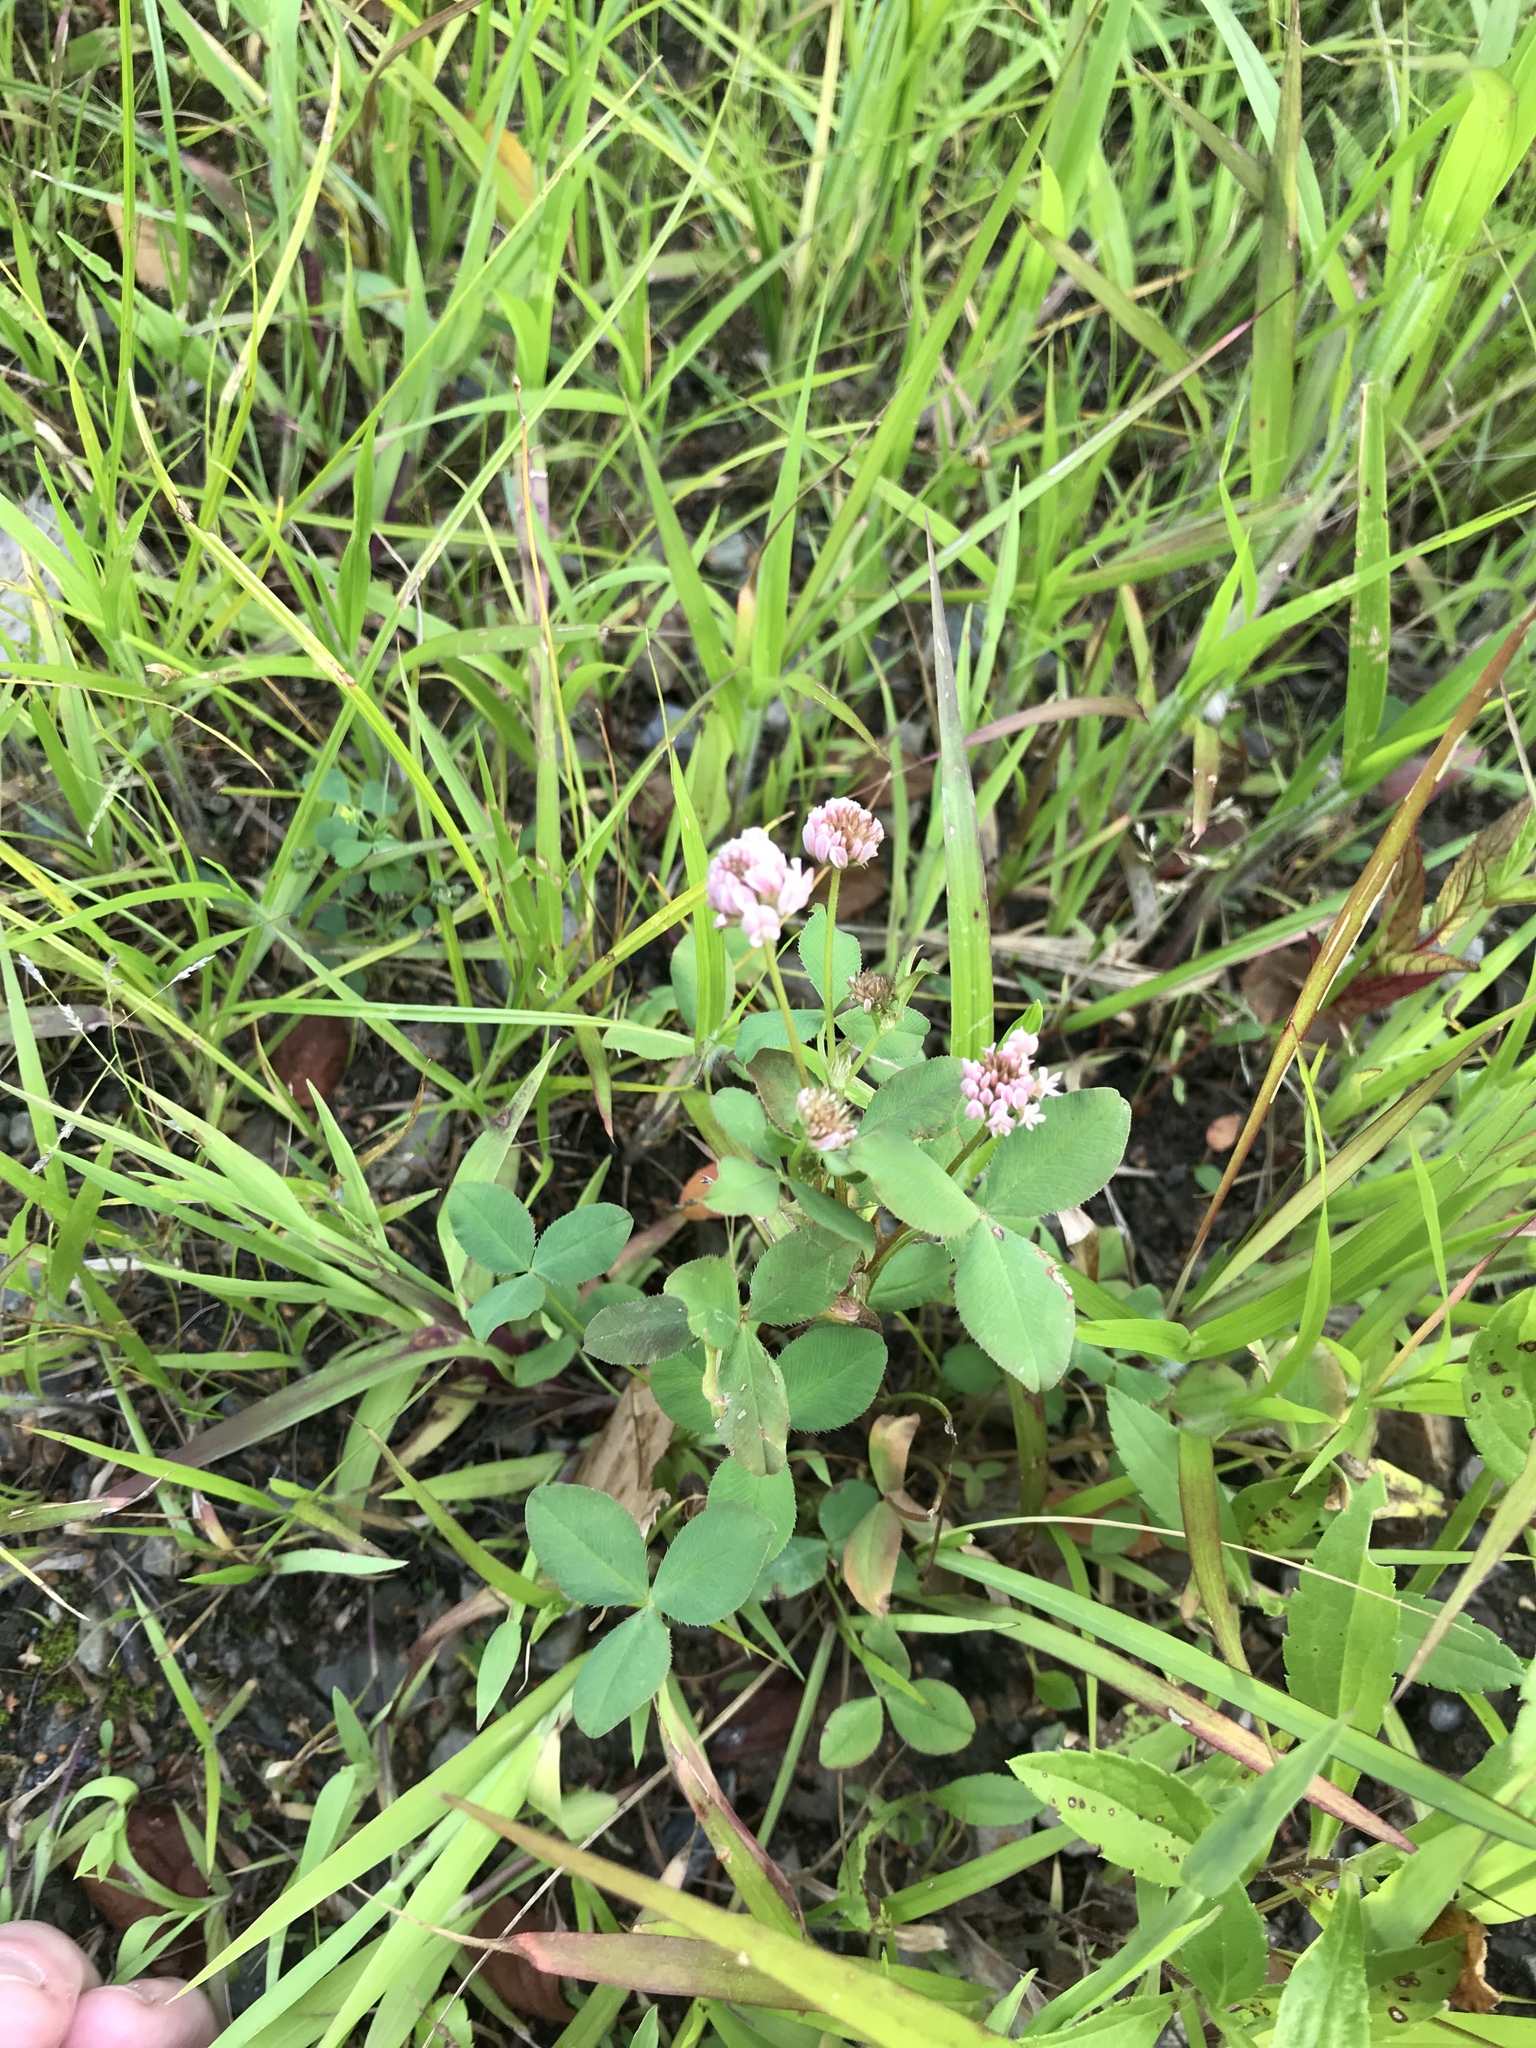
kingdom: Plantae
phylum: Tracheophyta
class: Magnoliopsida
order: Fabales
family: Fabaceae
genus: Trifolium
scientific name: Trifolium hybridum
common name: Alsike clover
